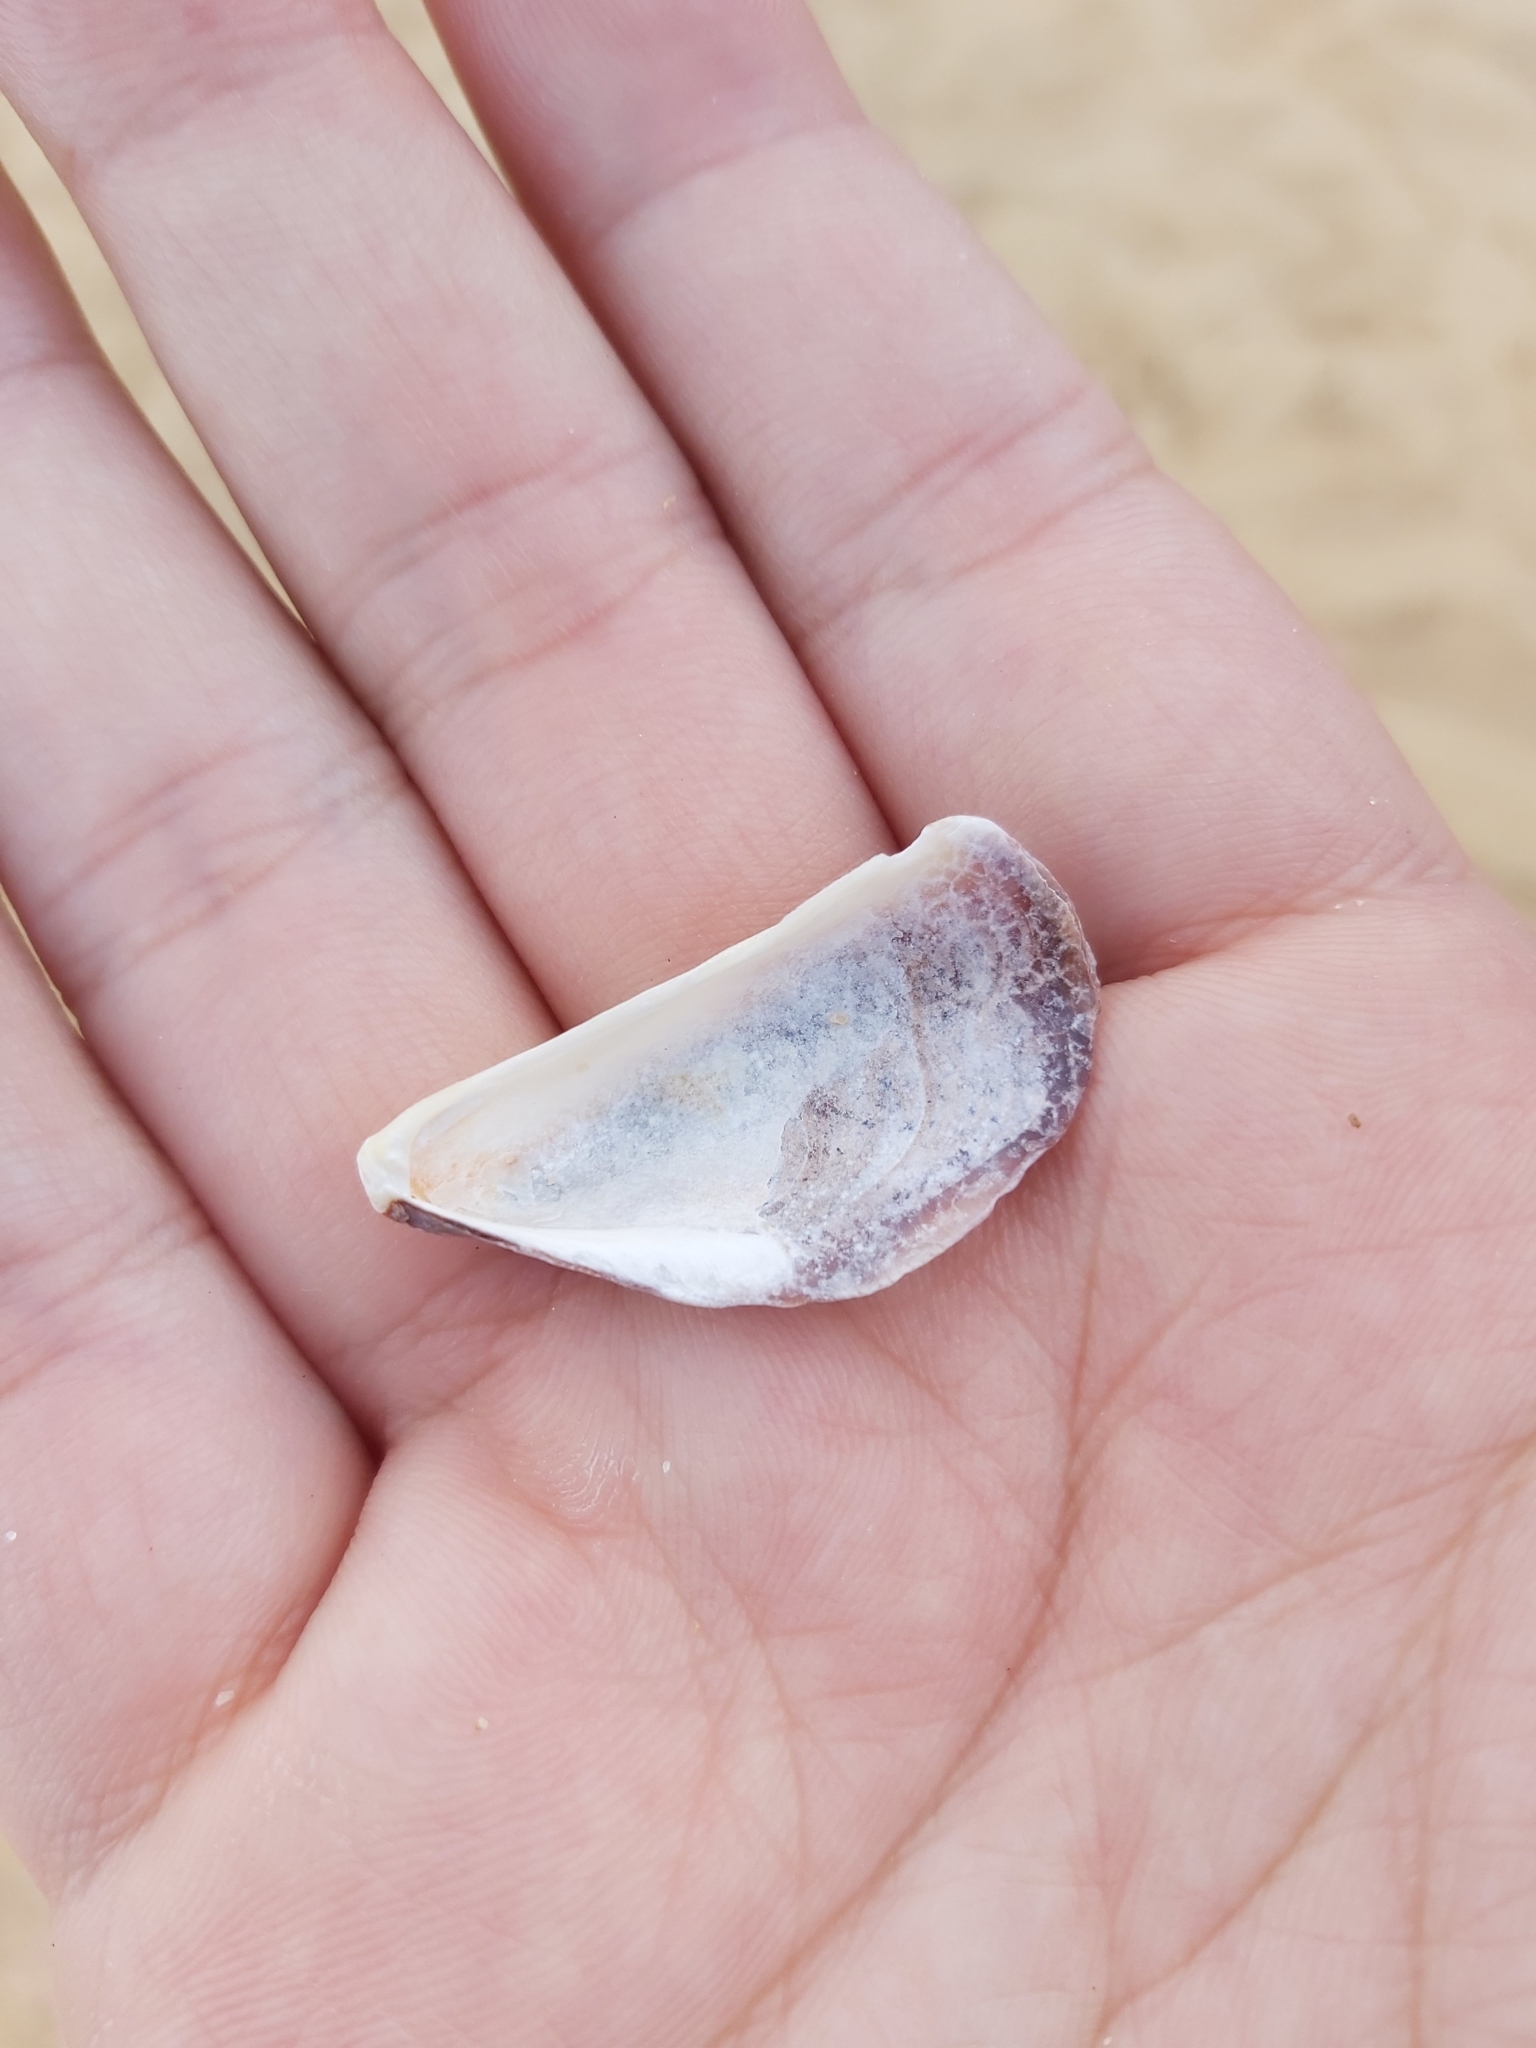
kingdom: Animalia
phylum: Mollusca
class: Bivalvia
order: Mytilida
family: Mytilidae
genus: Trichomya
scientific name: Trichomya hirsuta
